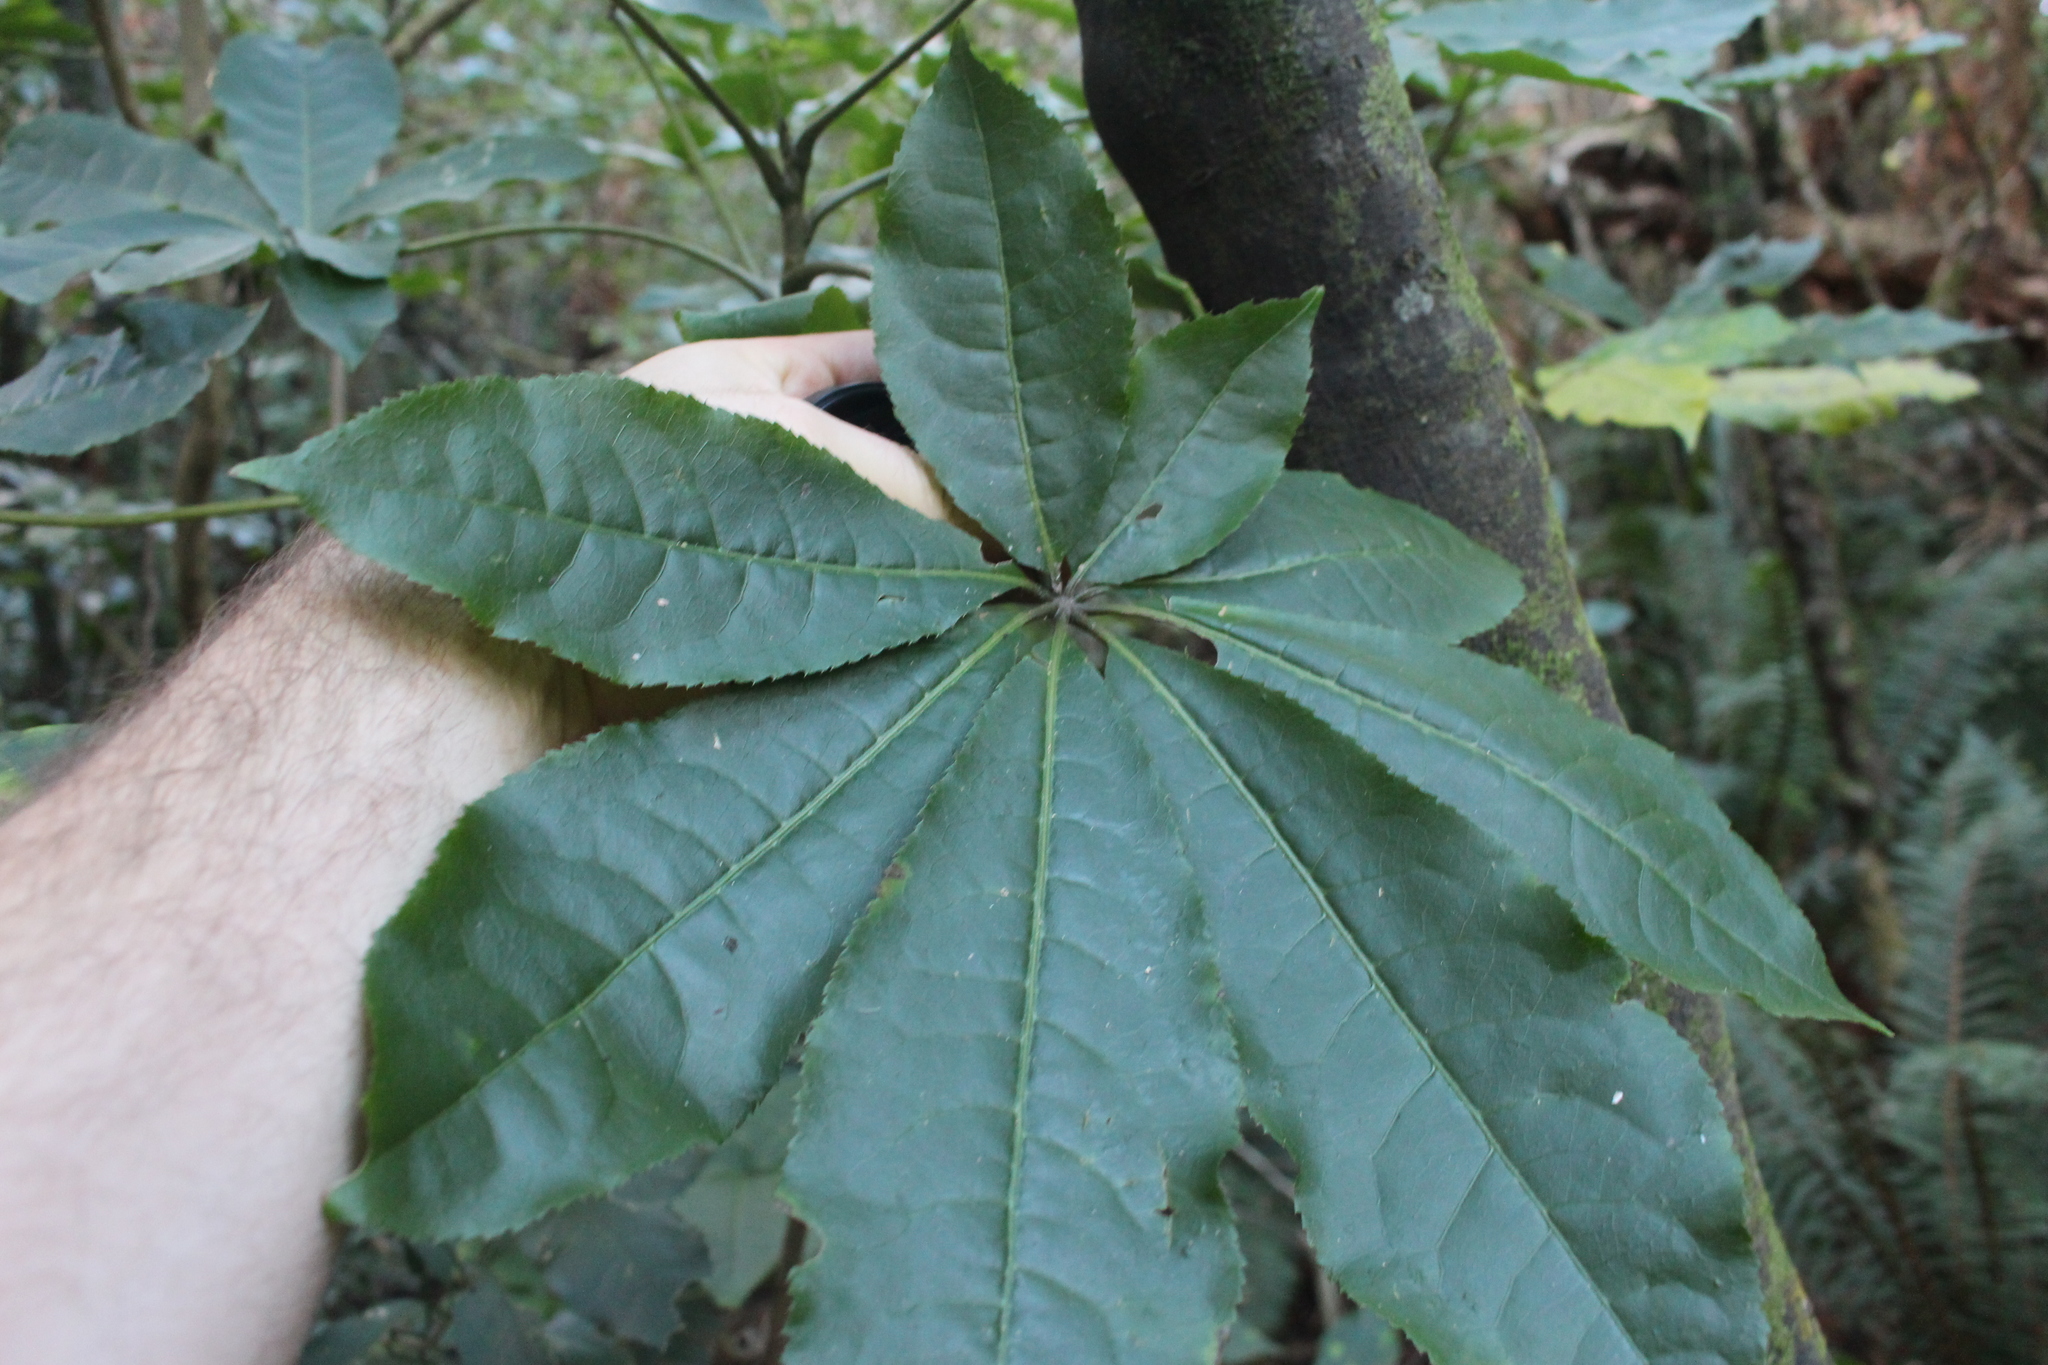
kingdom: Plantae
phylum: Tracheophyta
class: Magnoliopsida
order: Apiales
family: Araliaceae
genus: Schefflera
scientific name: Schefflera digitata
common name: Pate
